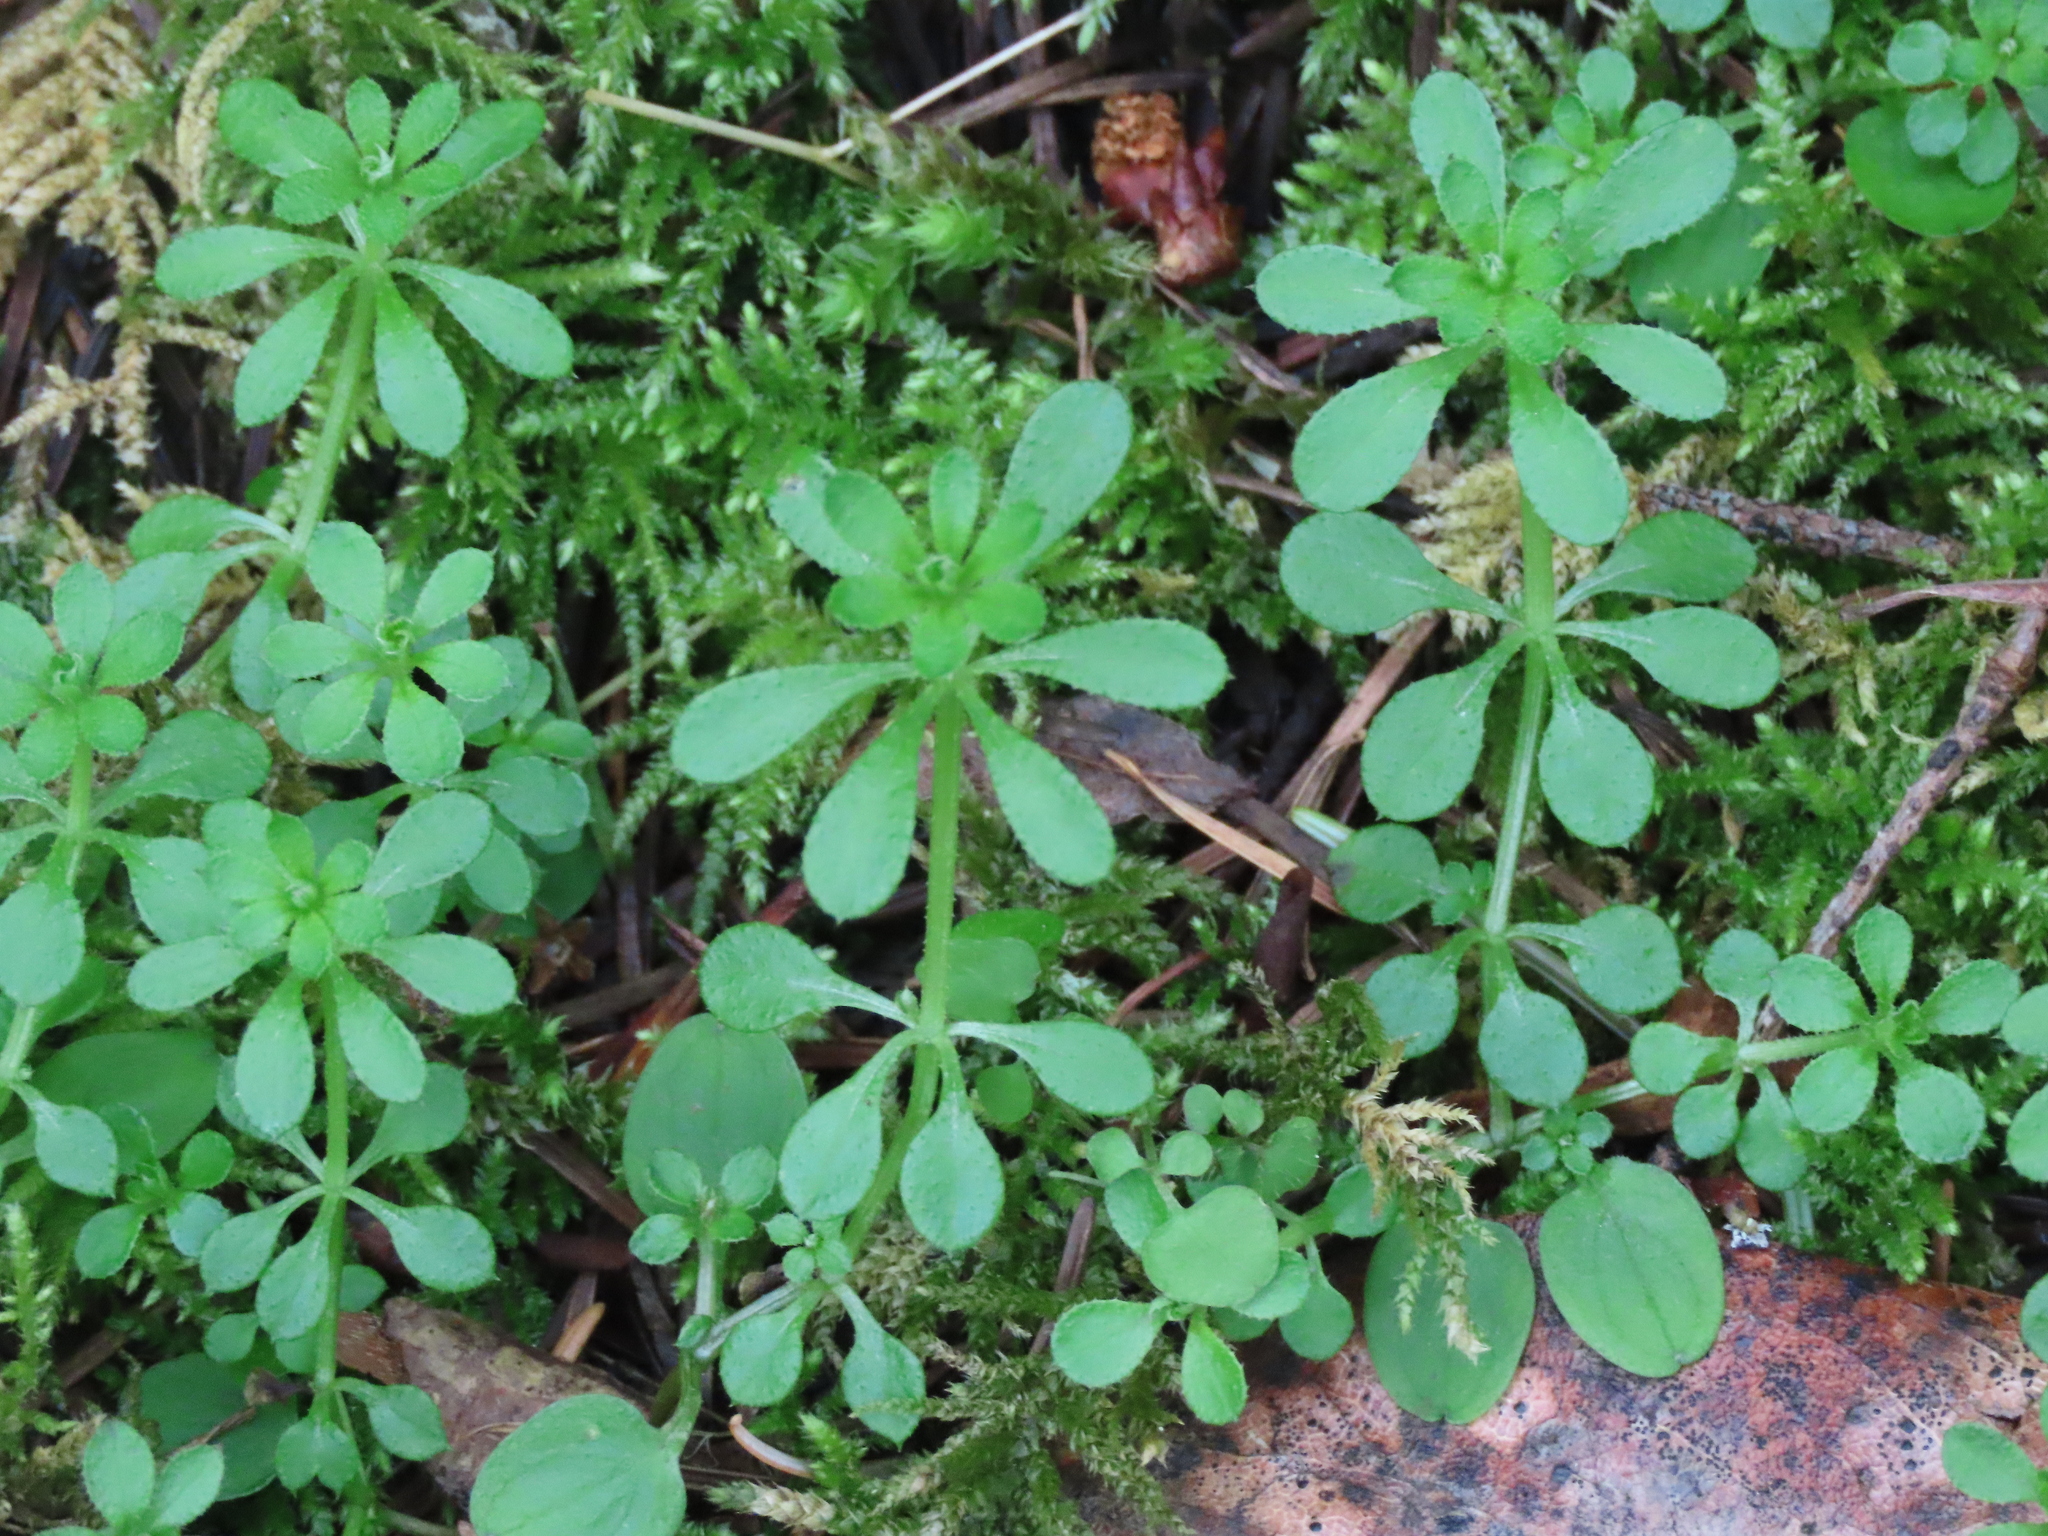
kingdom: Plantae
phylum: Tracheophyta
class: Magnoliopsida
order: Gentianales
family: Rubiaceae
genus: Galium
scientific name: Galium aparine
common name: Cleavers
